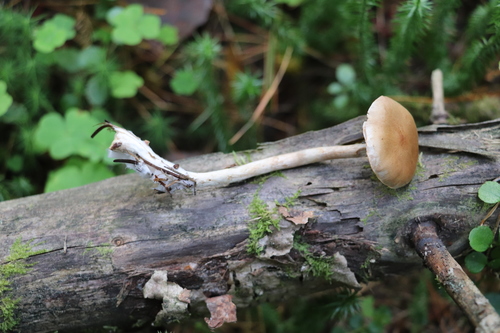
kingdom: Fungi
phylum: Basidiomycota
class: Agaricomycetes
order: Agaricales
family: Cortinariaceae
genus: Cortinarius
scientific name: Cortinarius anomalus
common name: Variable webcap
